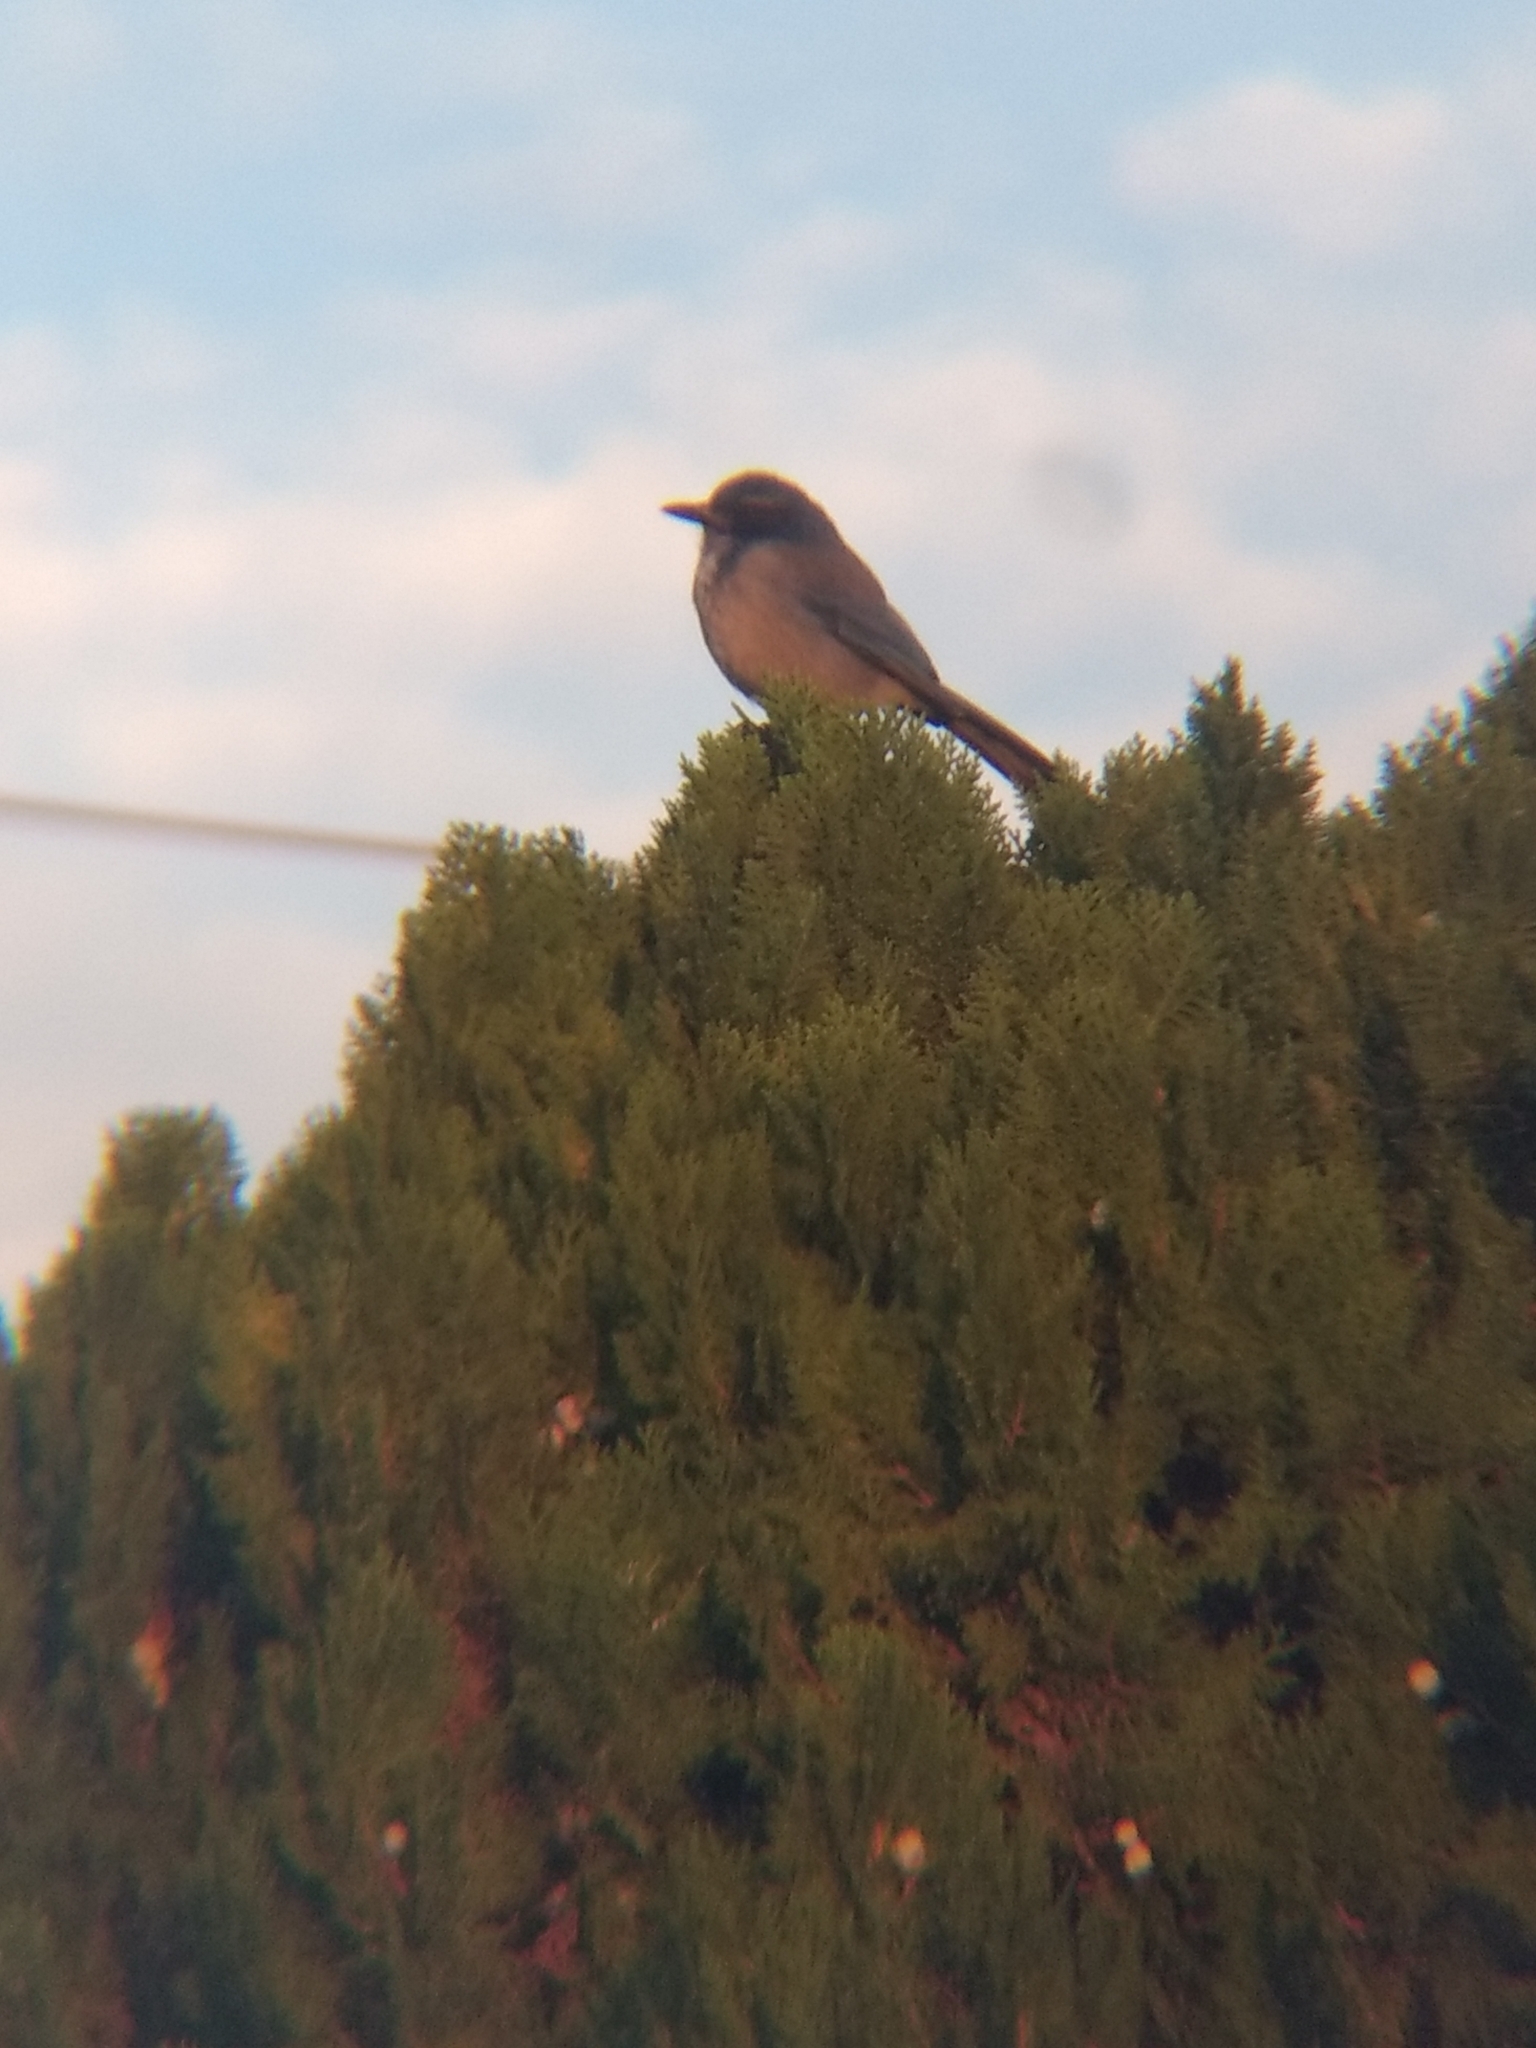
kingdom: Animalia
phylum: Chordata
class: Aves
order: Passeriformes
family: Corvidae
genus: Aphelocoma
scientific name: Aphelocoma californica
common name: California scrub-jay
